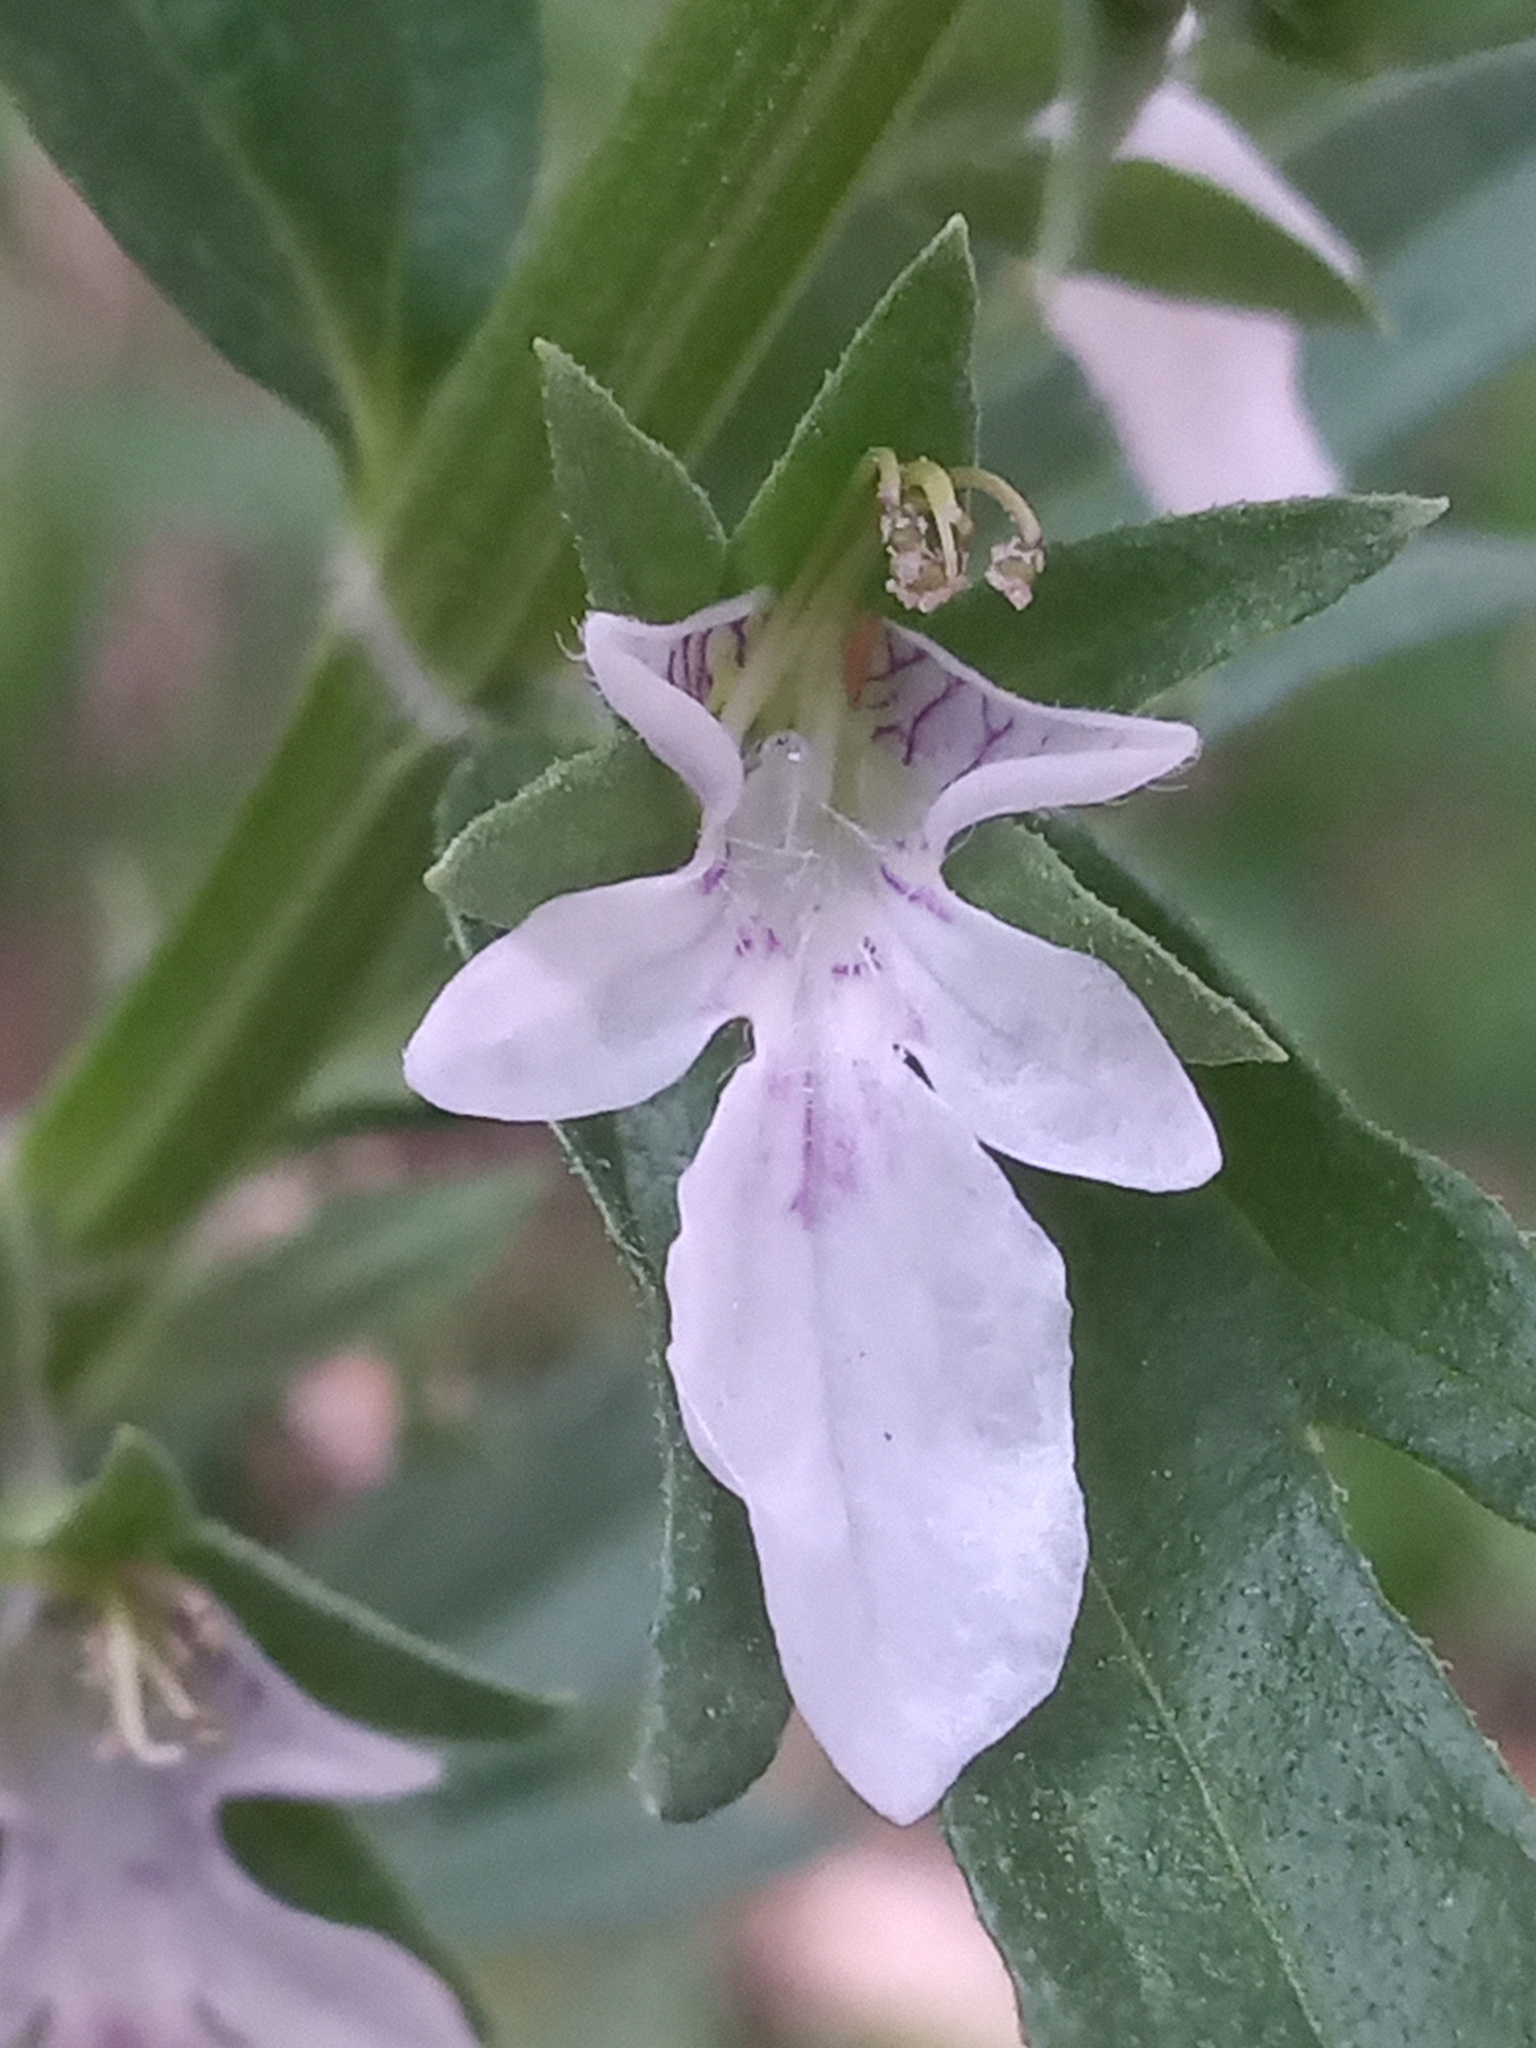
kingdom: Plantae
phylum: Tracheophyta
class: Magnoliopsida
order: Lamiales
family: Lamiaceae
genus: Teucrium
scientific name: Teucrium cubense
